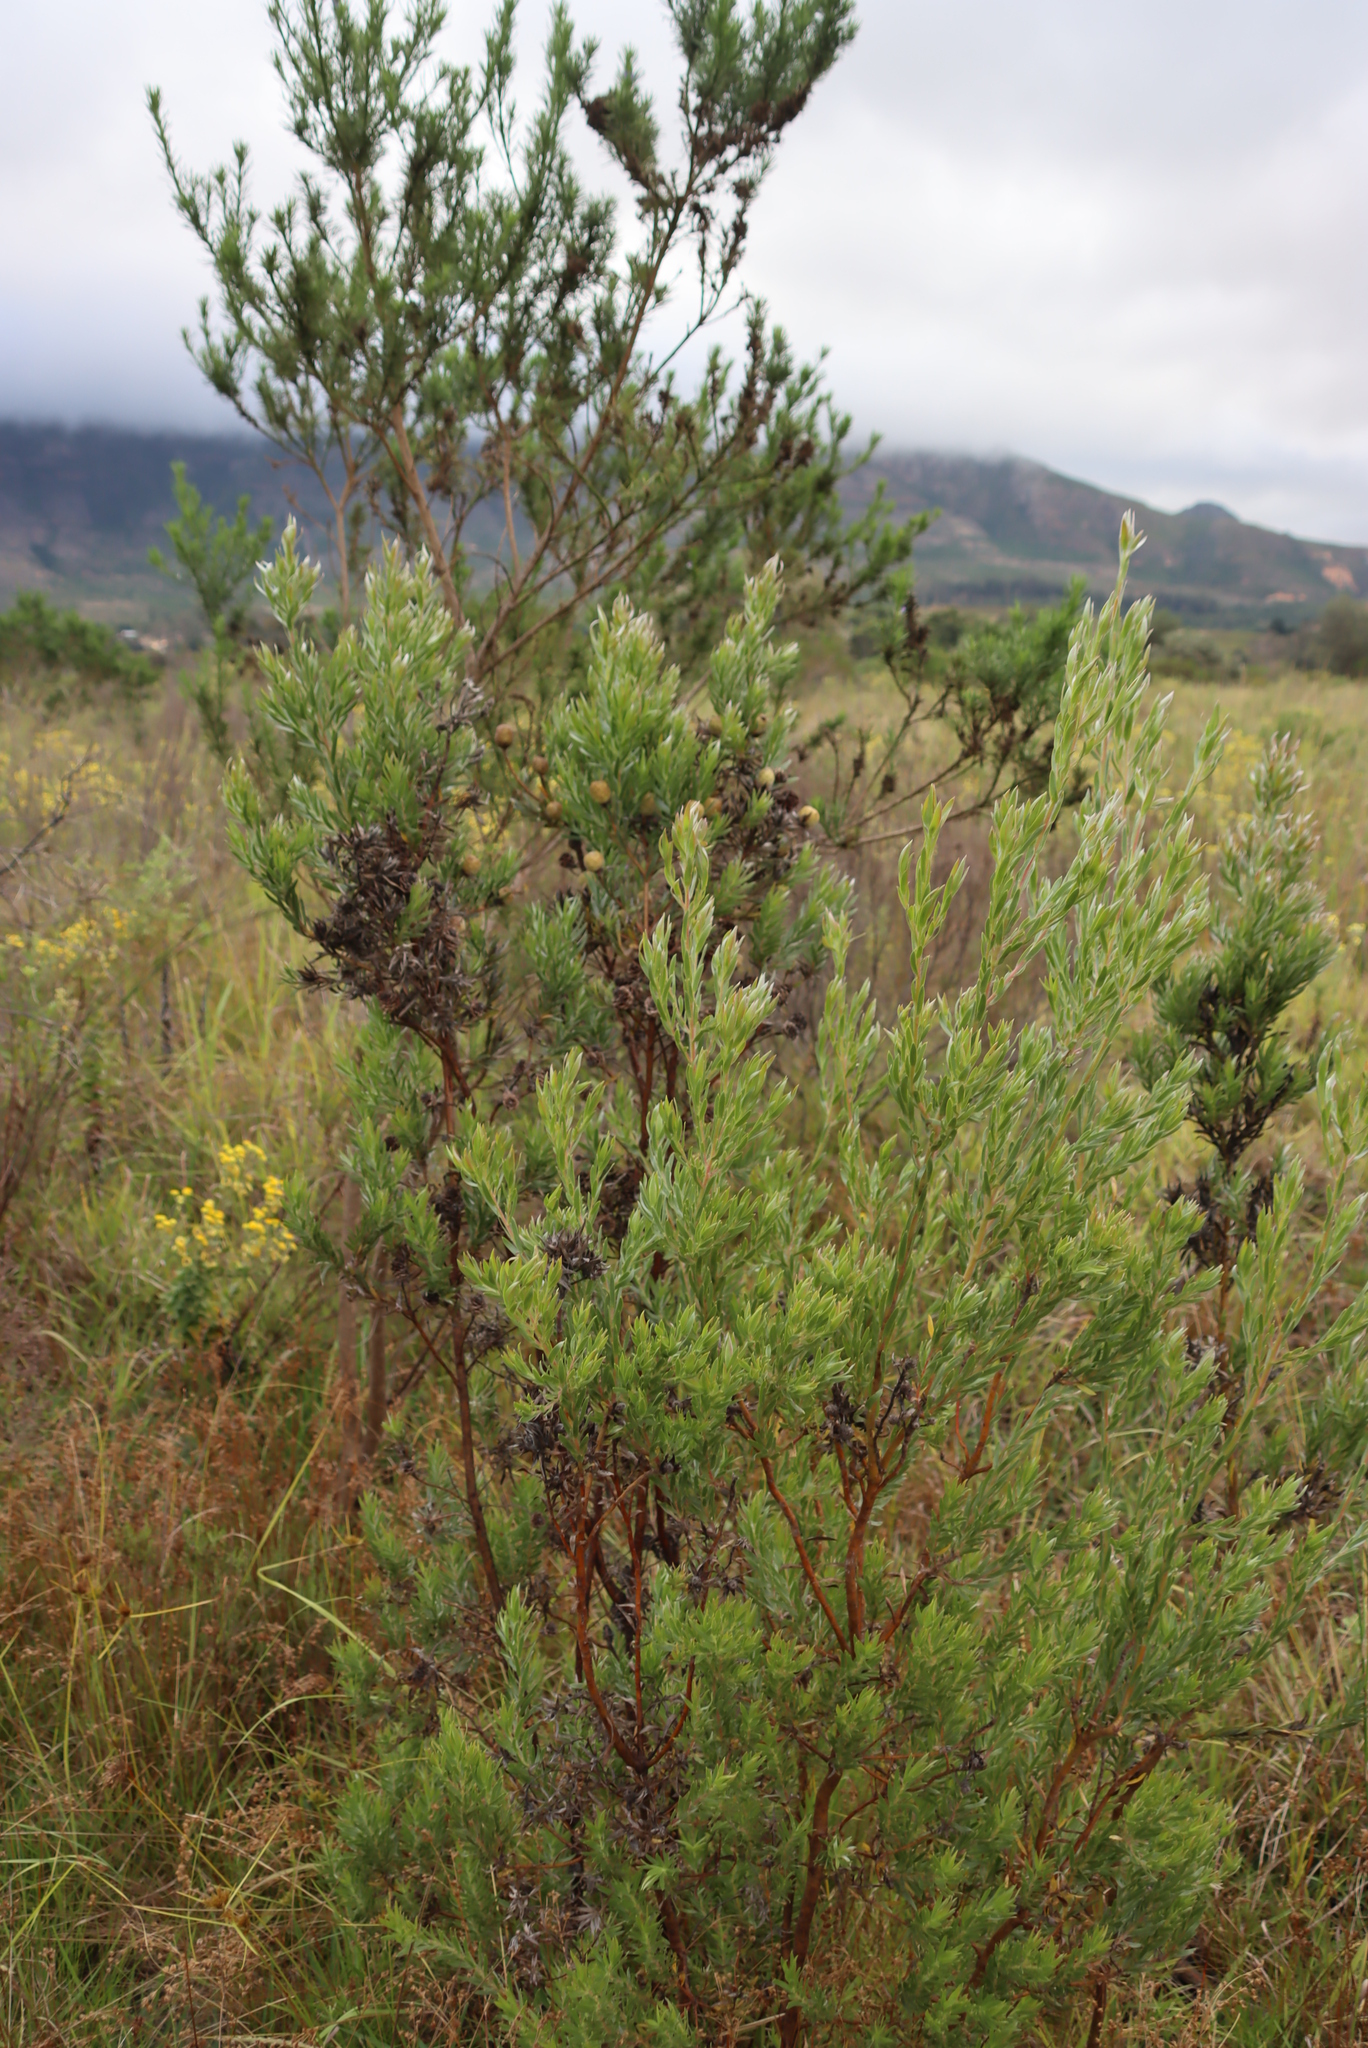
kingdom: Plantae
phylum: Tracheophyta
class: Magnoliopsida
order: Proteales
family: Proteaceae
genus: Leucadendron
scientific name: Leucadendron floridum
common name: Flats conebush
